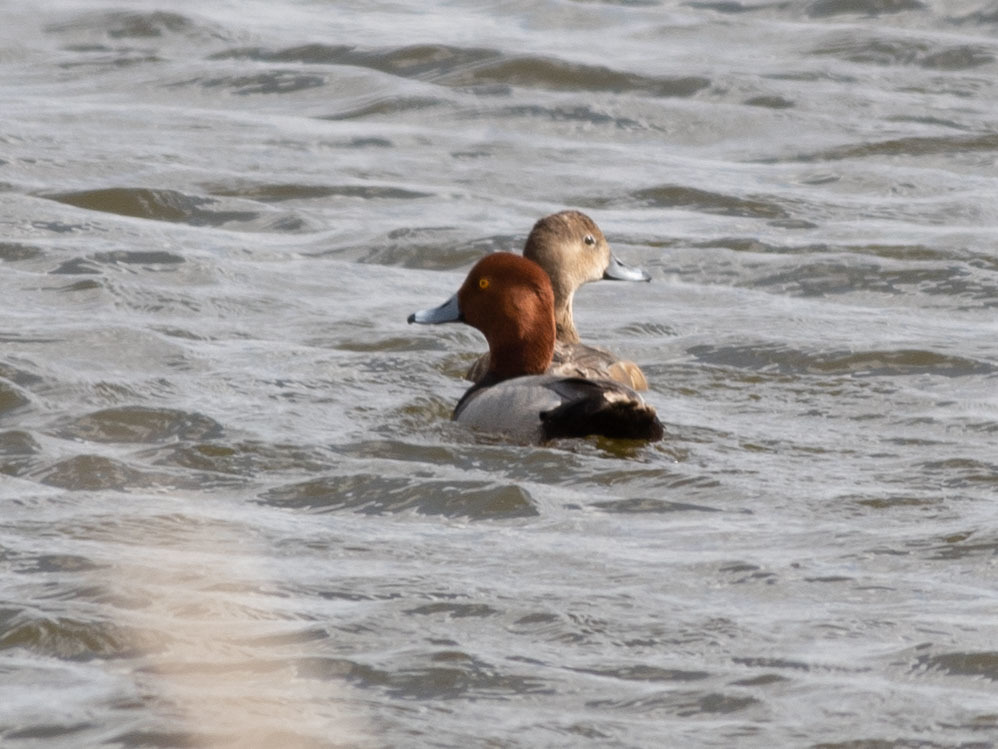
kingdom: Animalia
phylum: Chordata
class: Aves
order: Anseriformes
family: Anatidae
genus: Aythya
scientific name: Aythya americana
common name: Redhead
